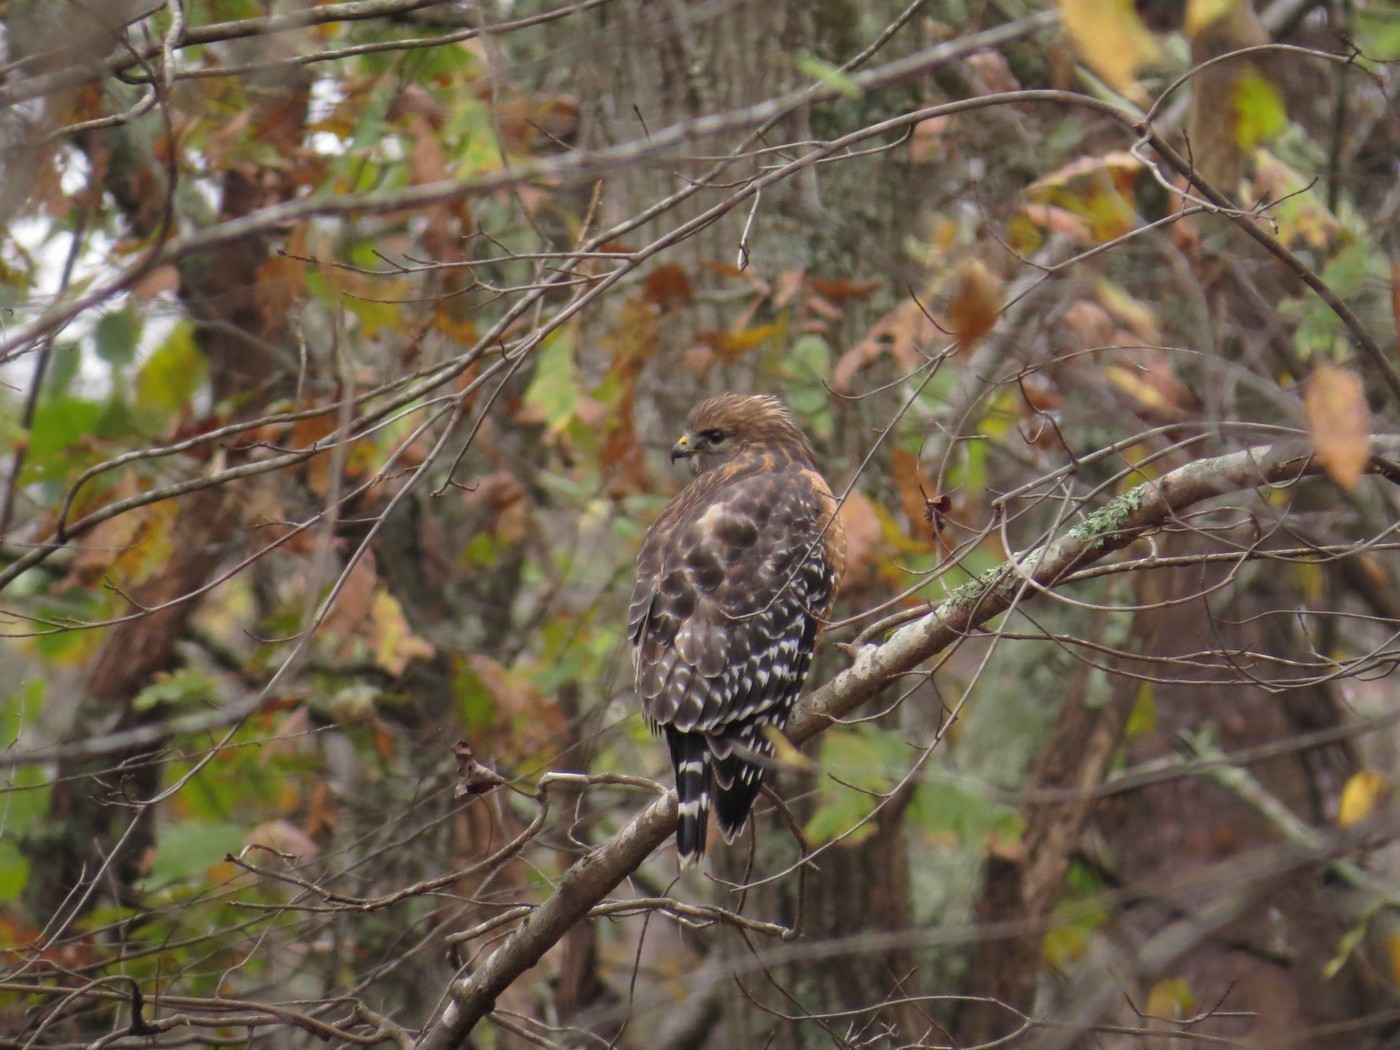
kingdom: Animalia
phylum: Chordata
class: Aves
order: Accipitriformes
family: Accipitridae
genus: Buteo
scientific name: Buteo lineatus
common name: Red-shouldered hawk
